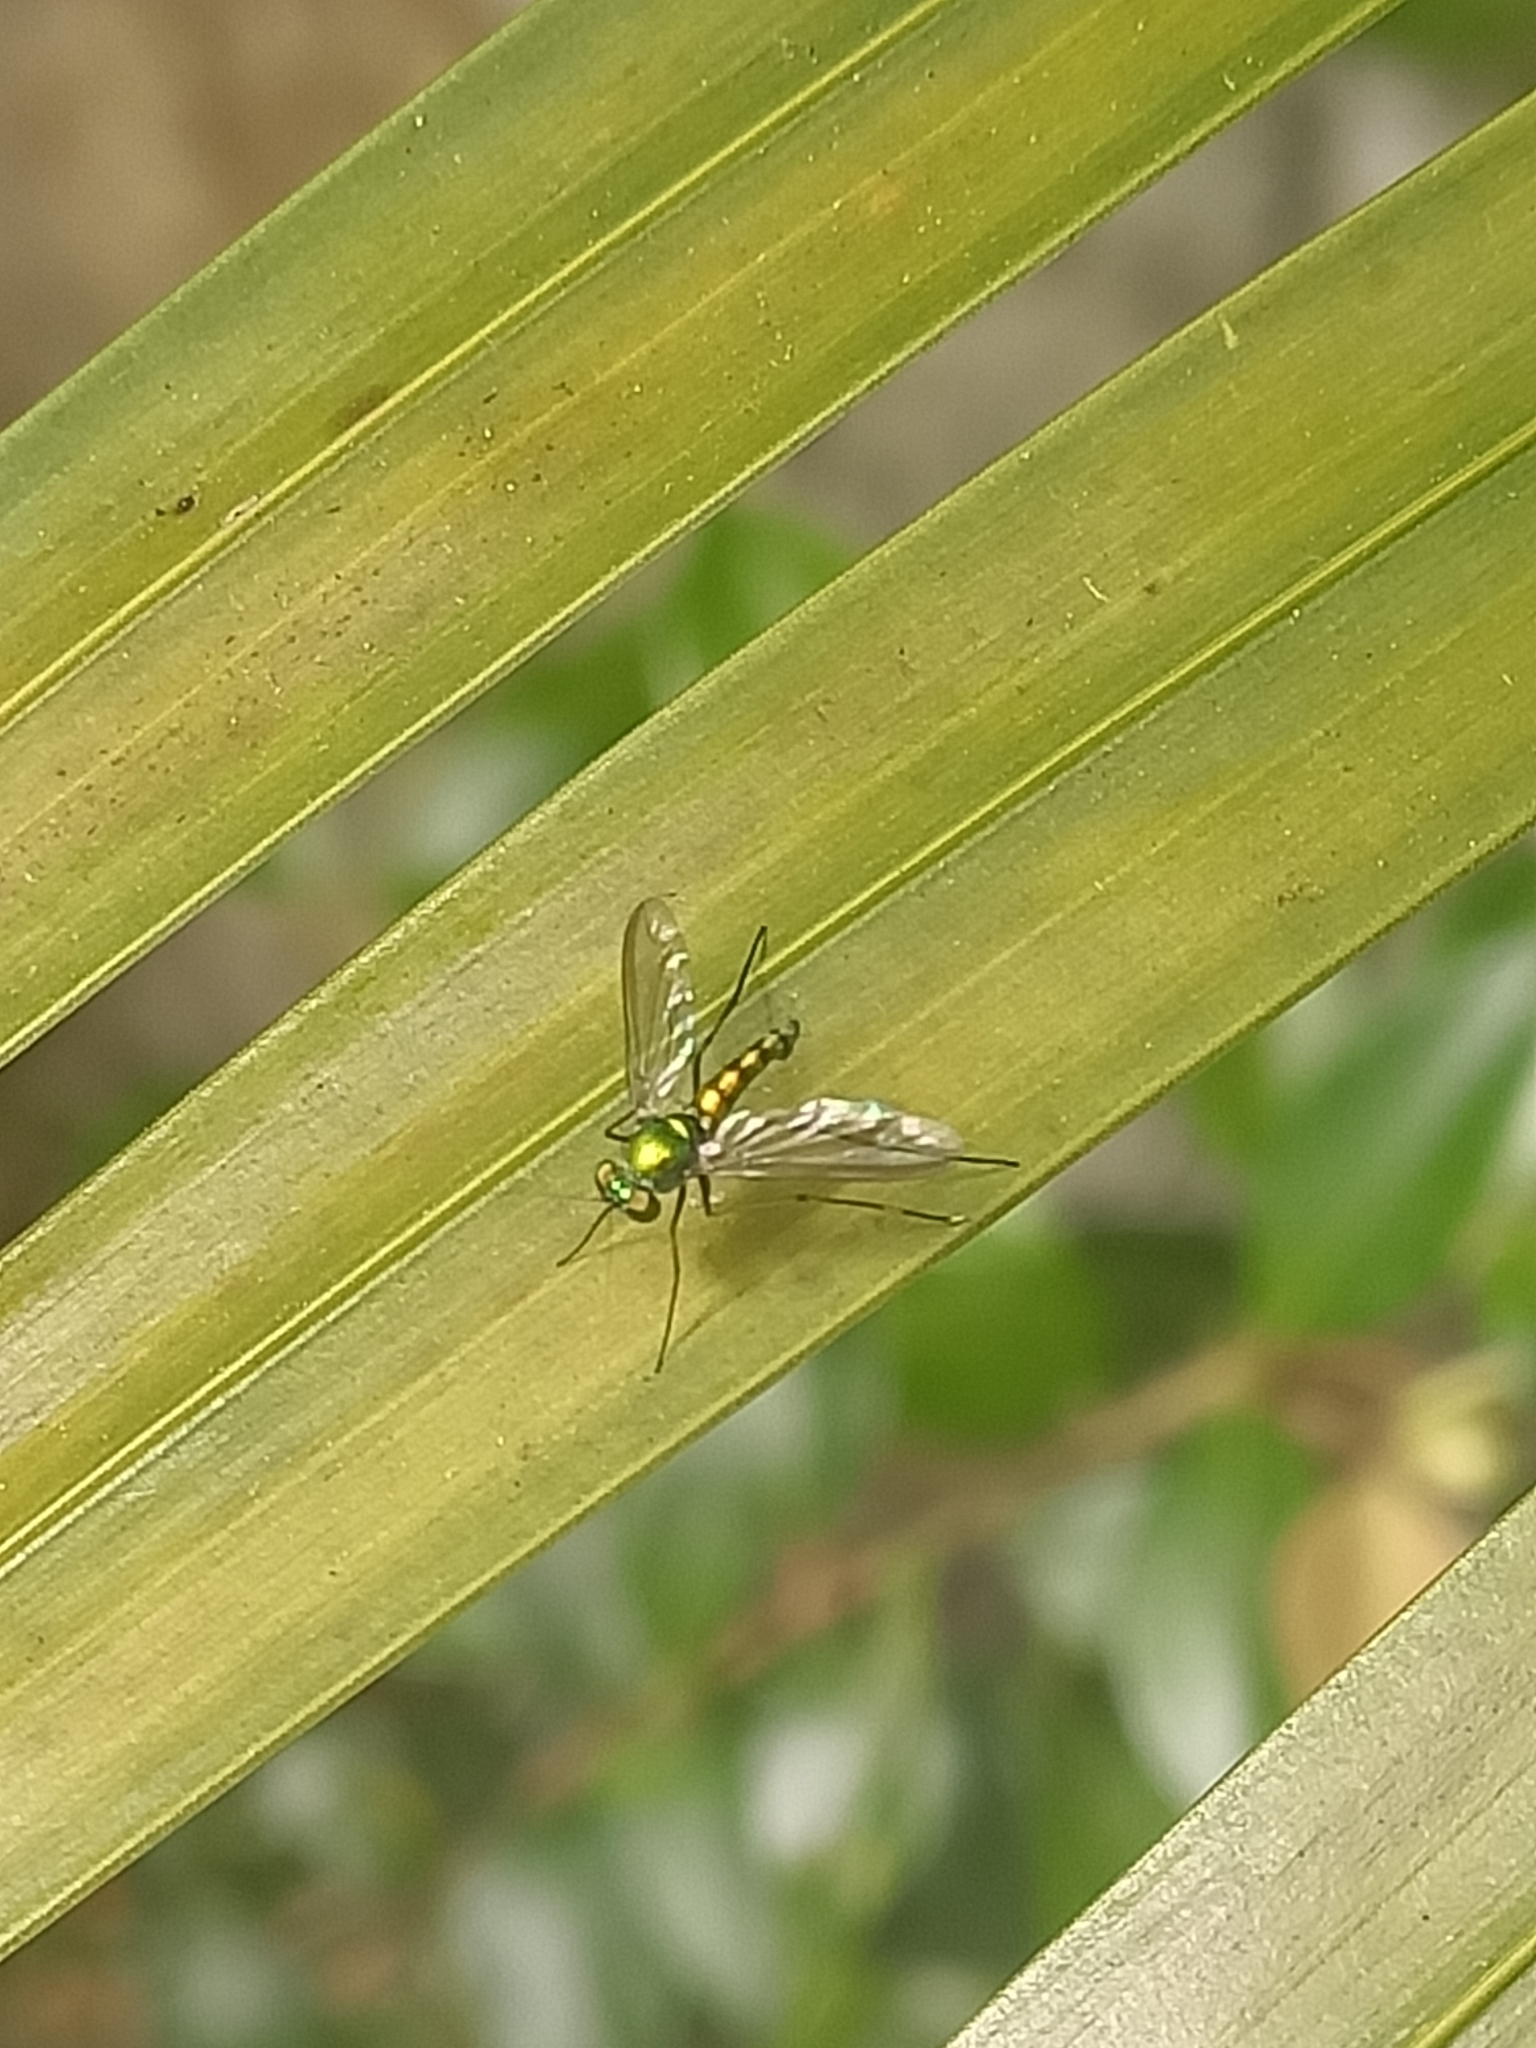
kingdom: Animalia
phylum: Arthropoda
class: Insecta
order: Diptera
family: Dolichopodidae
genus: Chrysosoma
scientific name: Chrysosoma leucopogon
